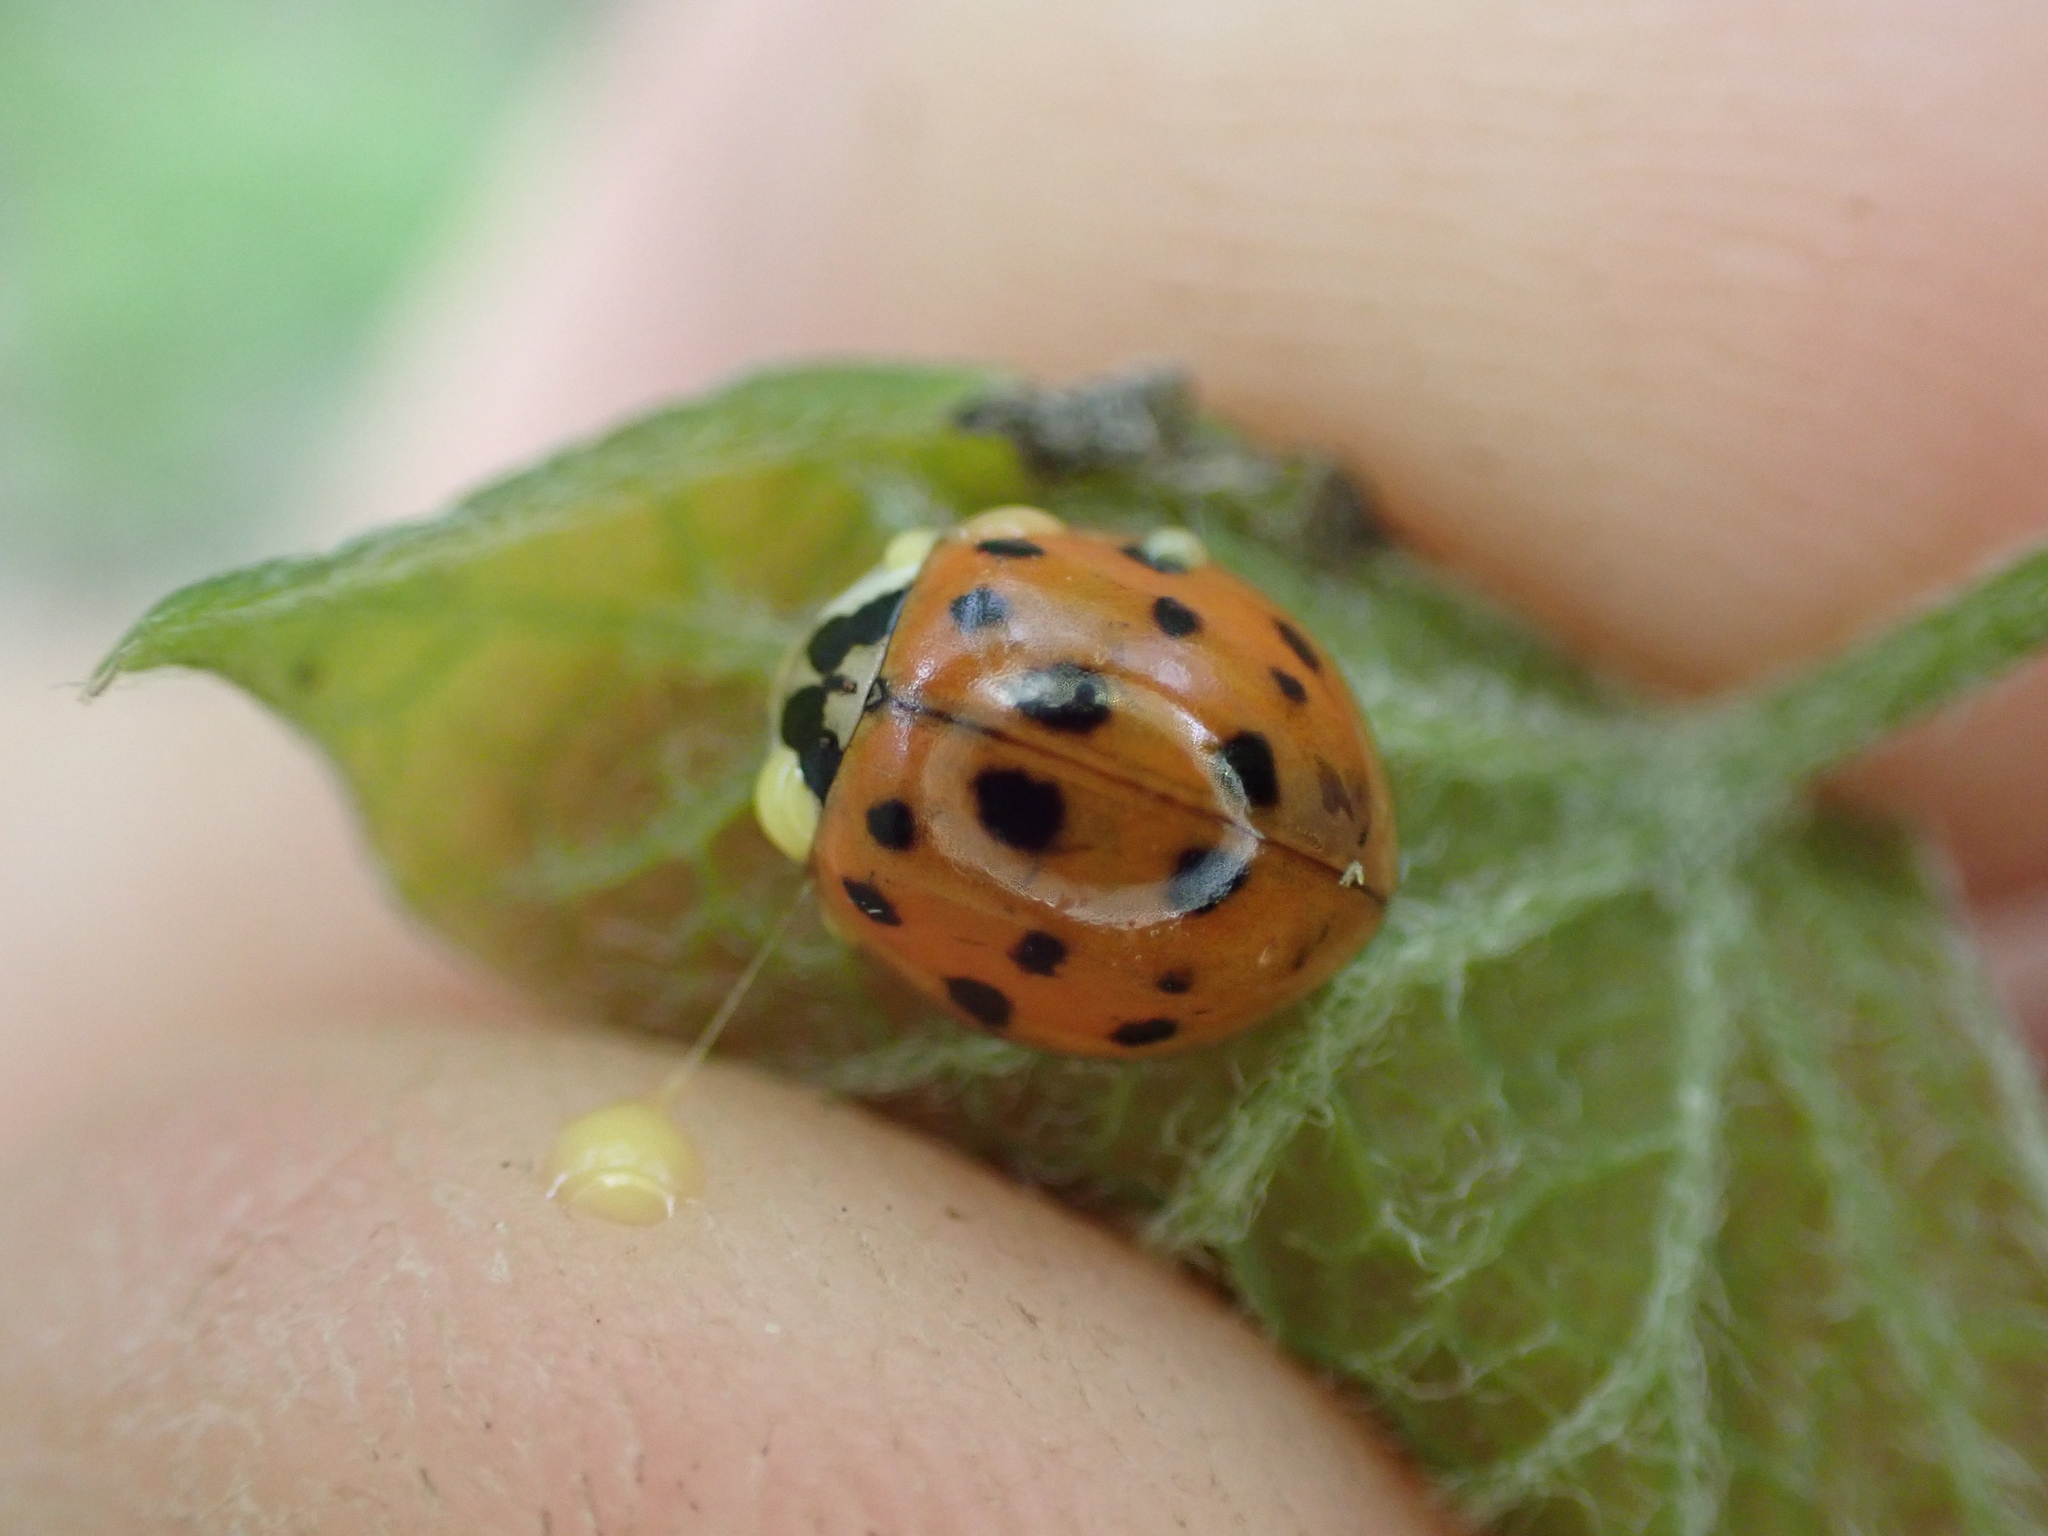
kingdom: Animalia
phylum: Arthropoda
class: Insecta
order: Coleoptera
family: Coccinellidae
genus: Harmonia
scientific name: Harmonia axyridis
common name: Harlequin ladybird
